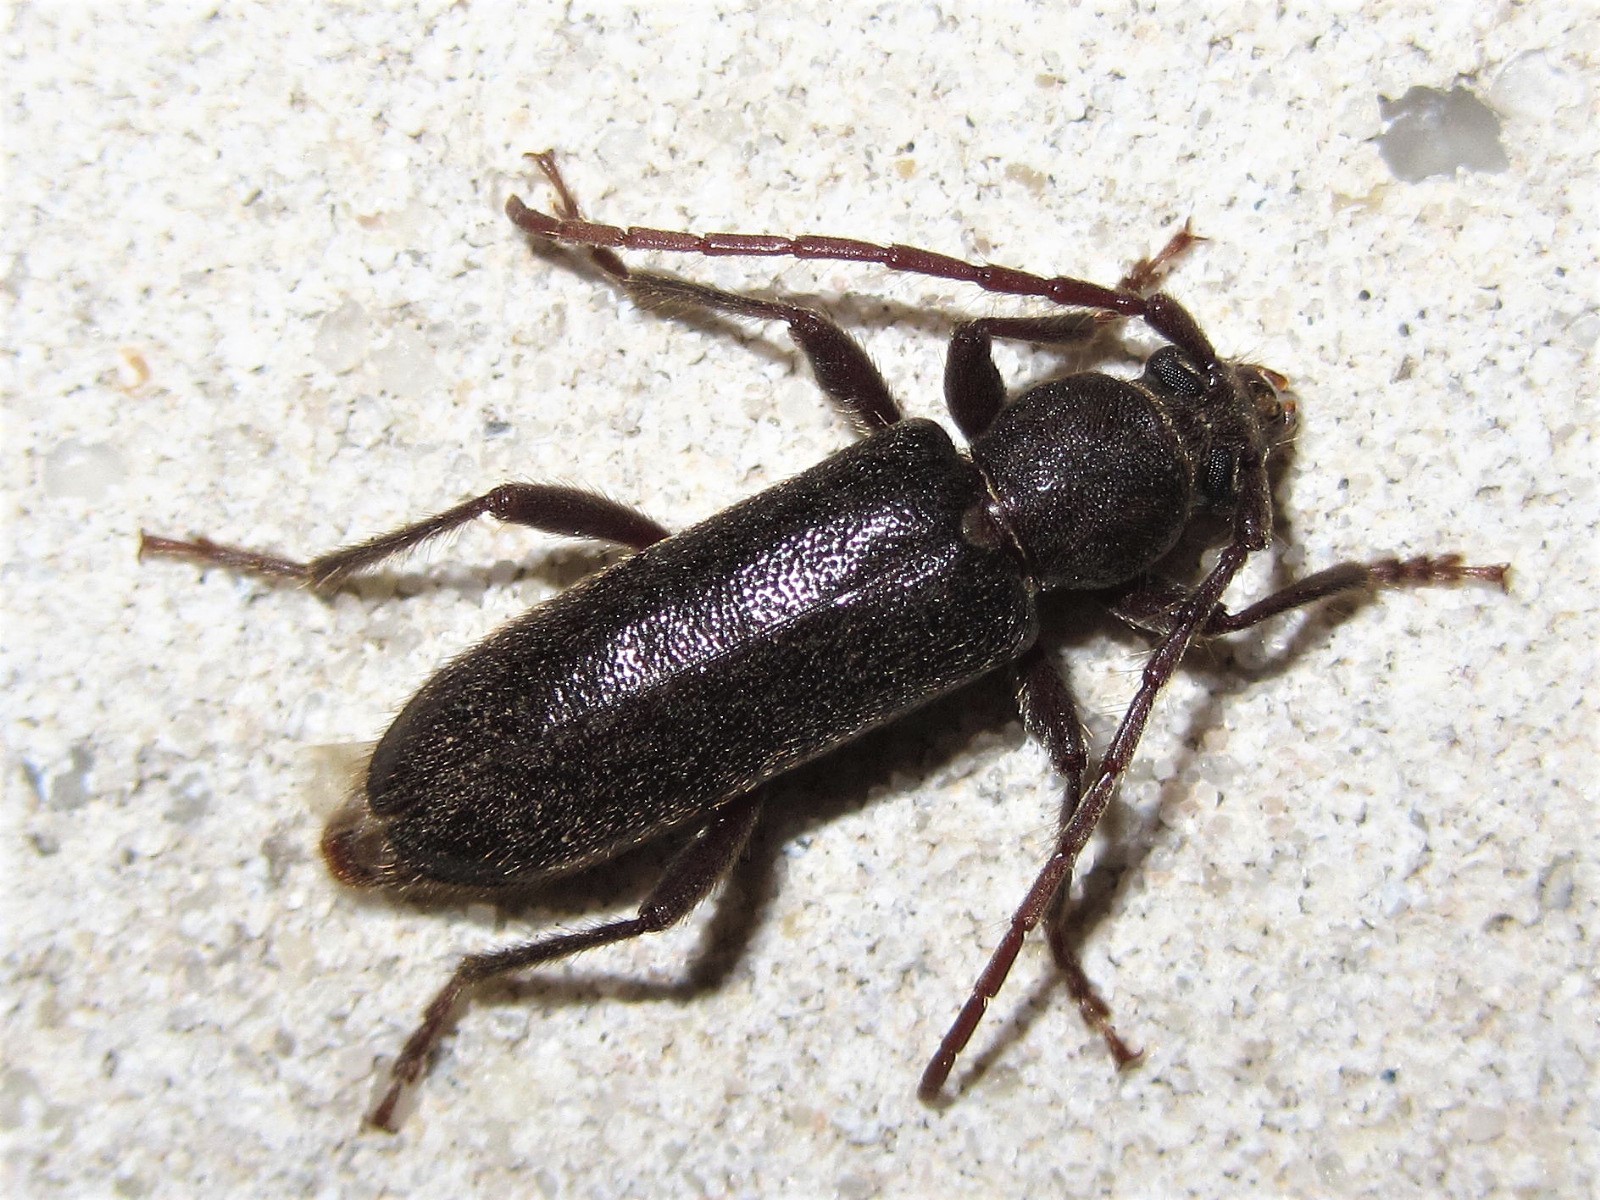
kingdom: Animalia
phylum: Arthropoda
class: Insecta
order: Coleoptera
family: Cerambycidae
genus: Trichoferus
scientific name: Trichoferus campestris
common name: Velvet long horned beetle
